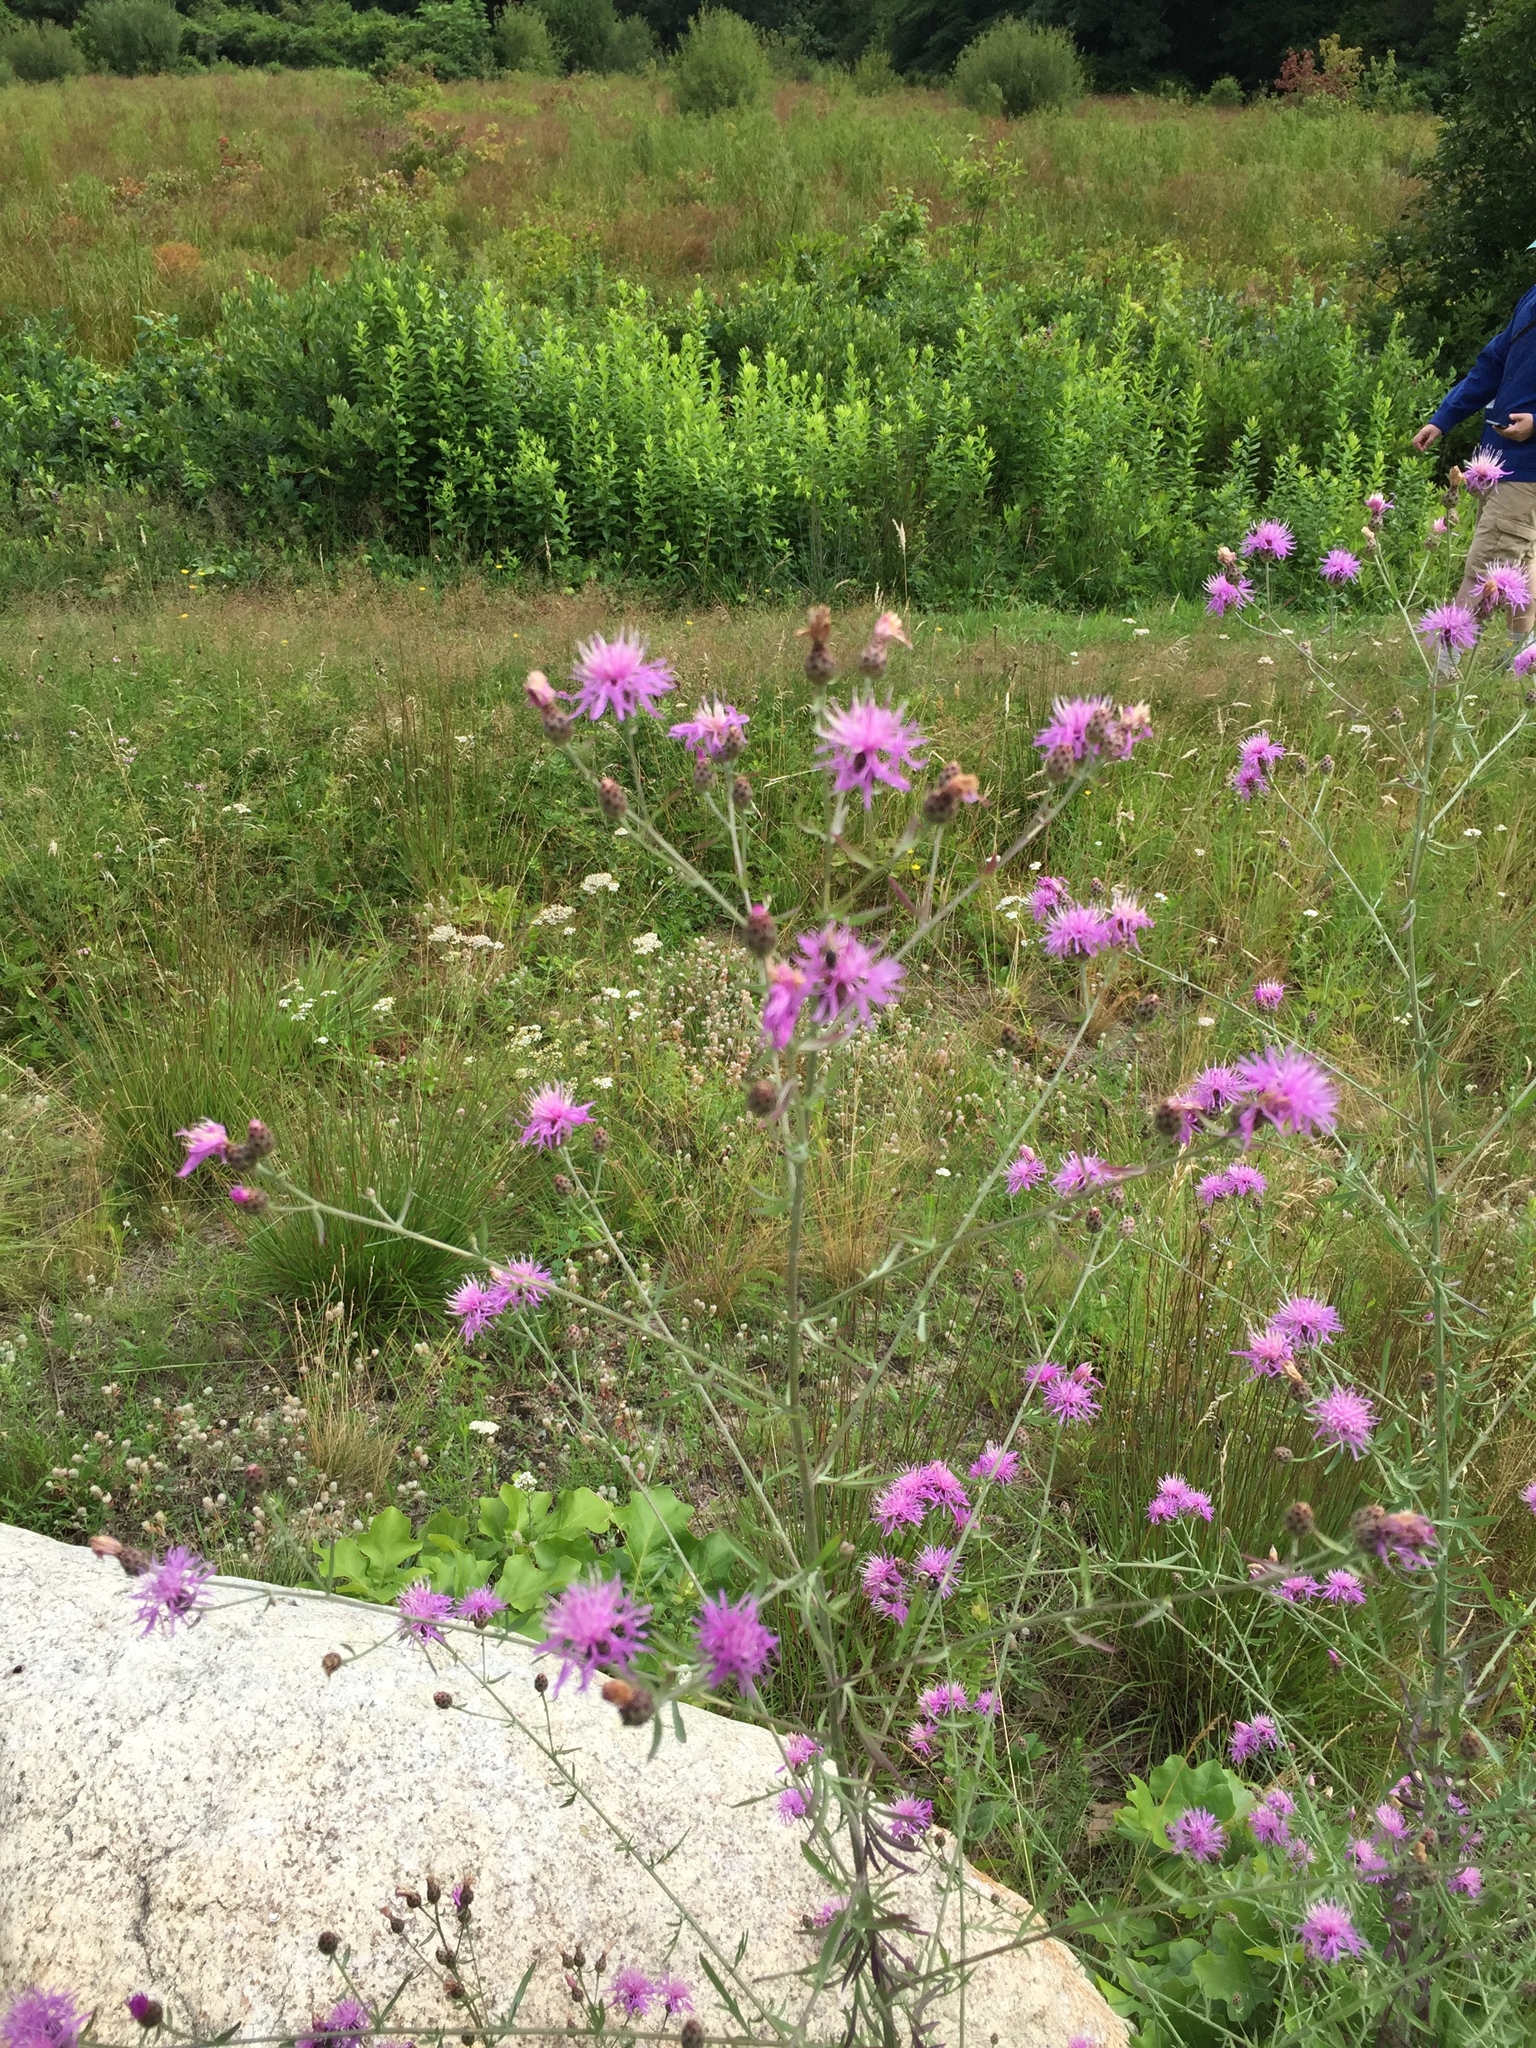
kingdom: Plantae
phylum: Tracheophyta
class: Magnoliopsida
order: Asterales
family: Asteraceae
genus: Centaurea
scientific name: Centaurea stoebe
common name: Spotted knapweed
